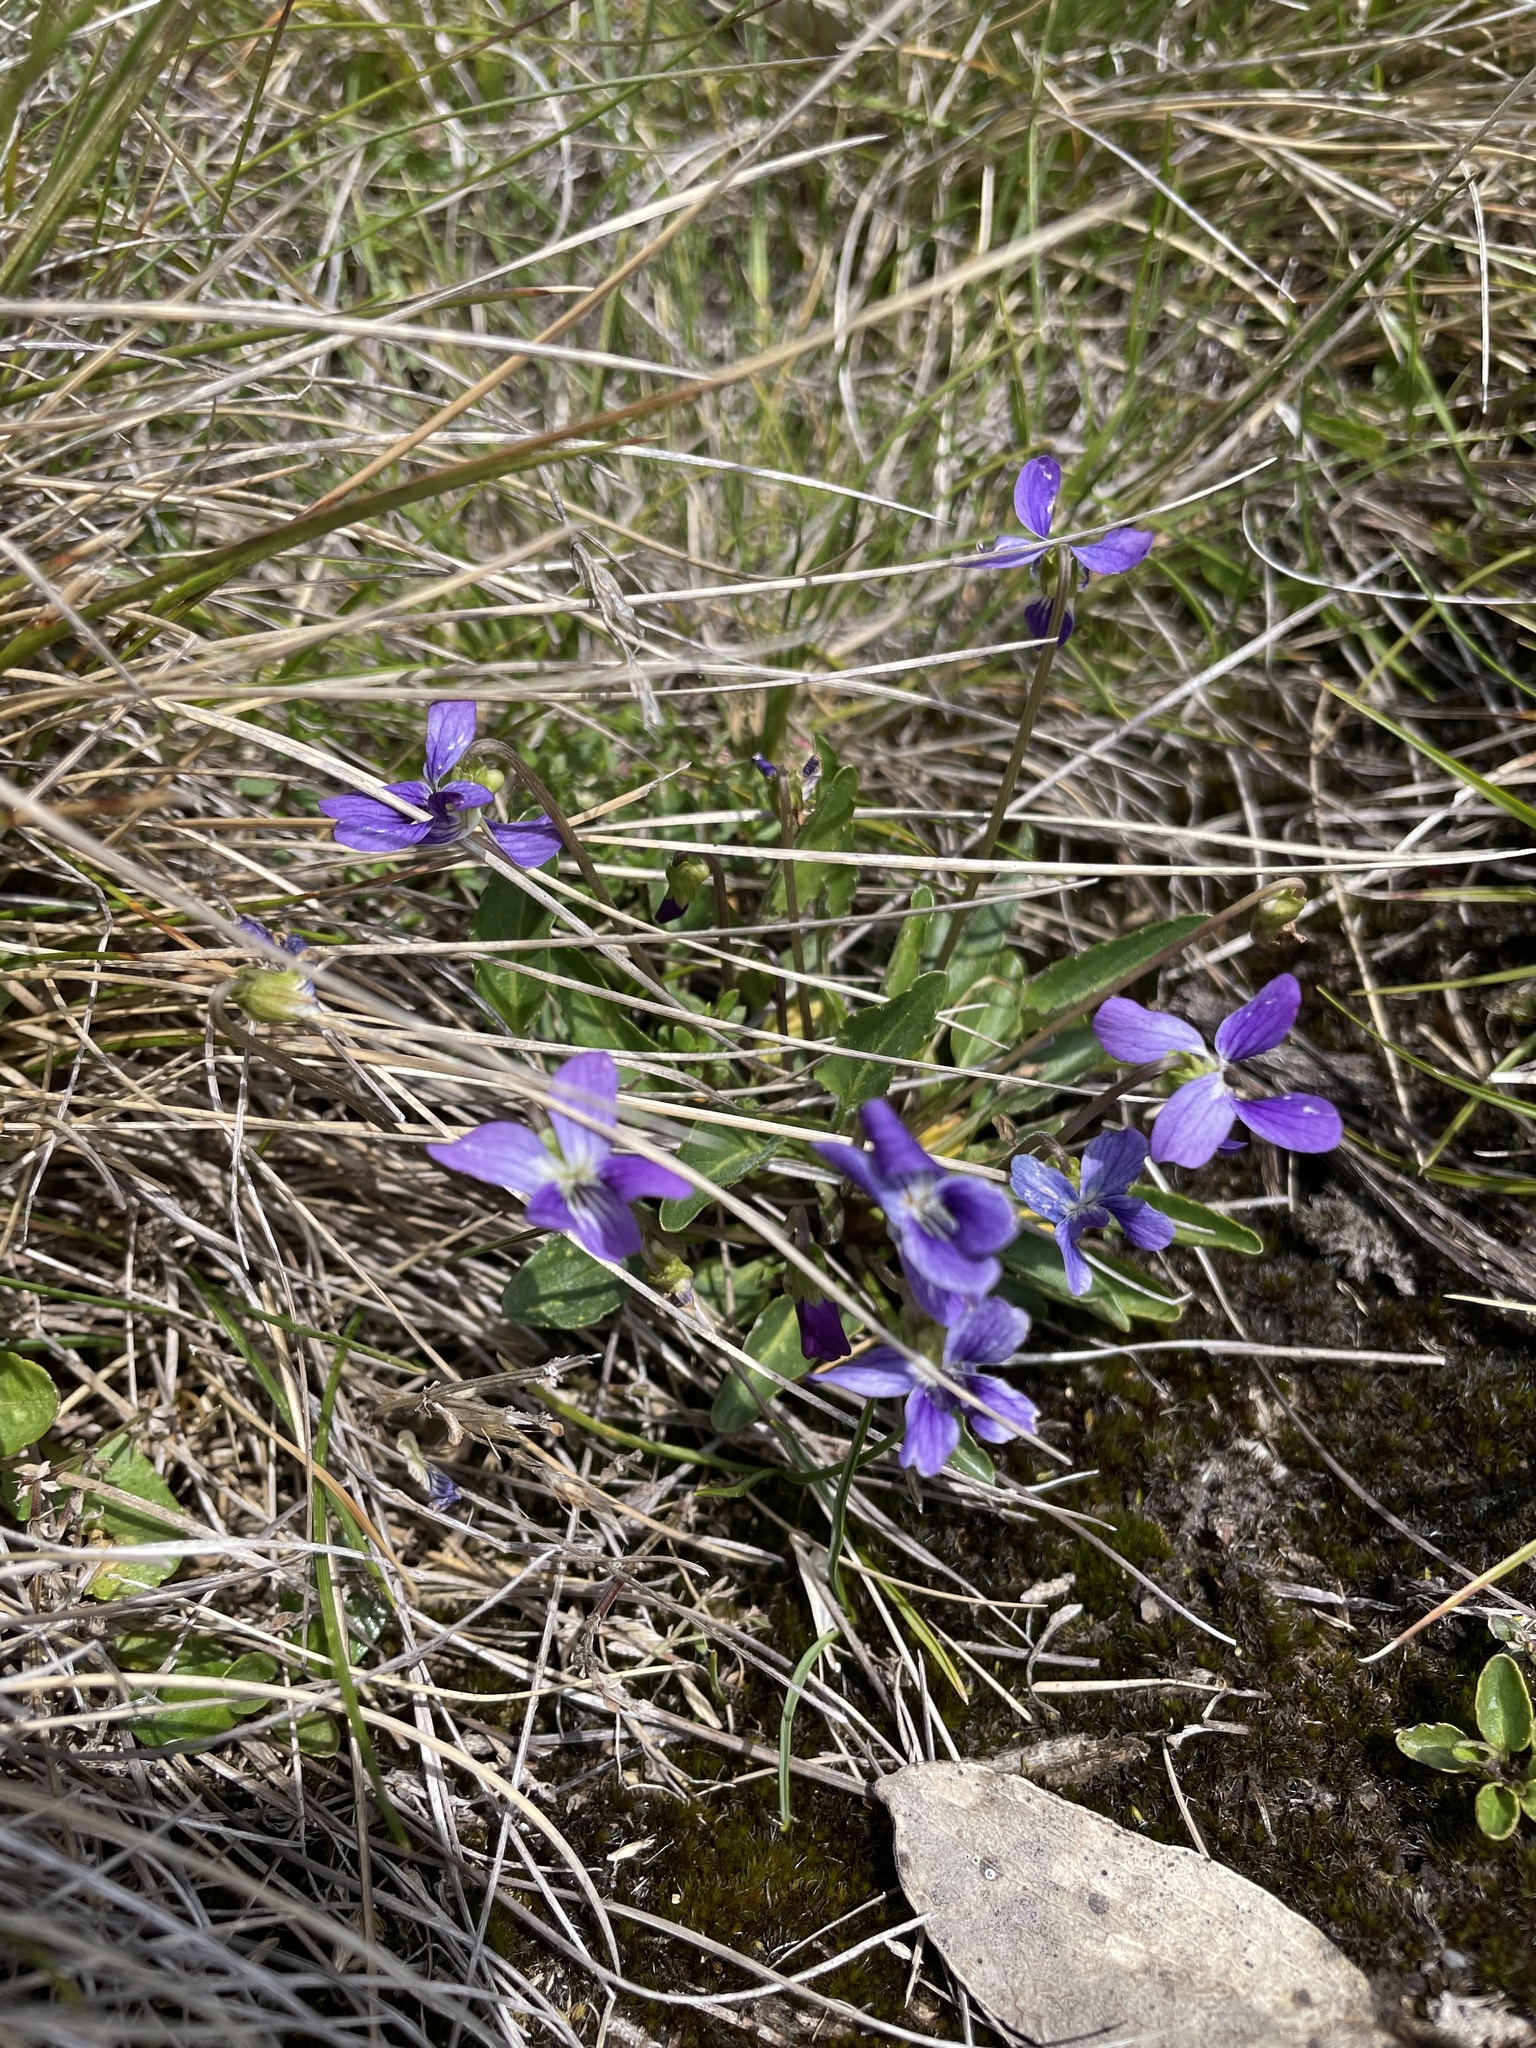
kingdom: Plantae
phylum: Tracheophyta
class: Magnoliopsida
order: Malpighiales
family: Violaceae
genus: Viola
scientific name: Viola betonicifolia
